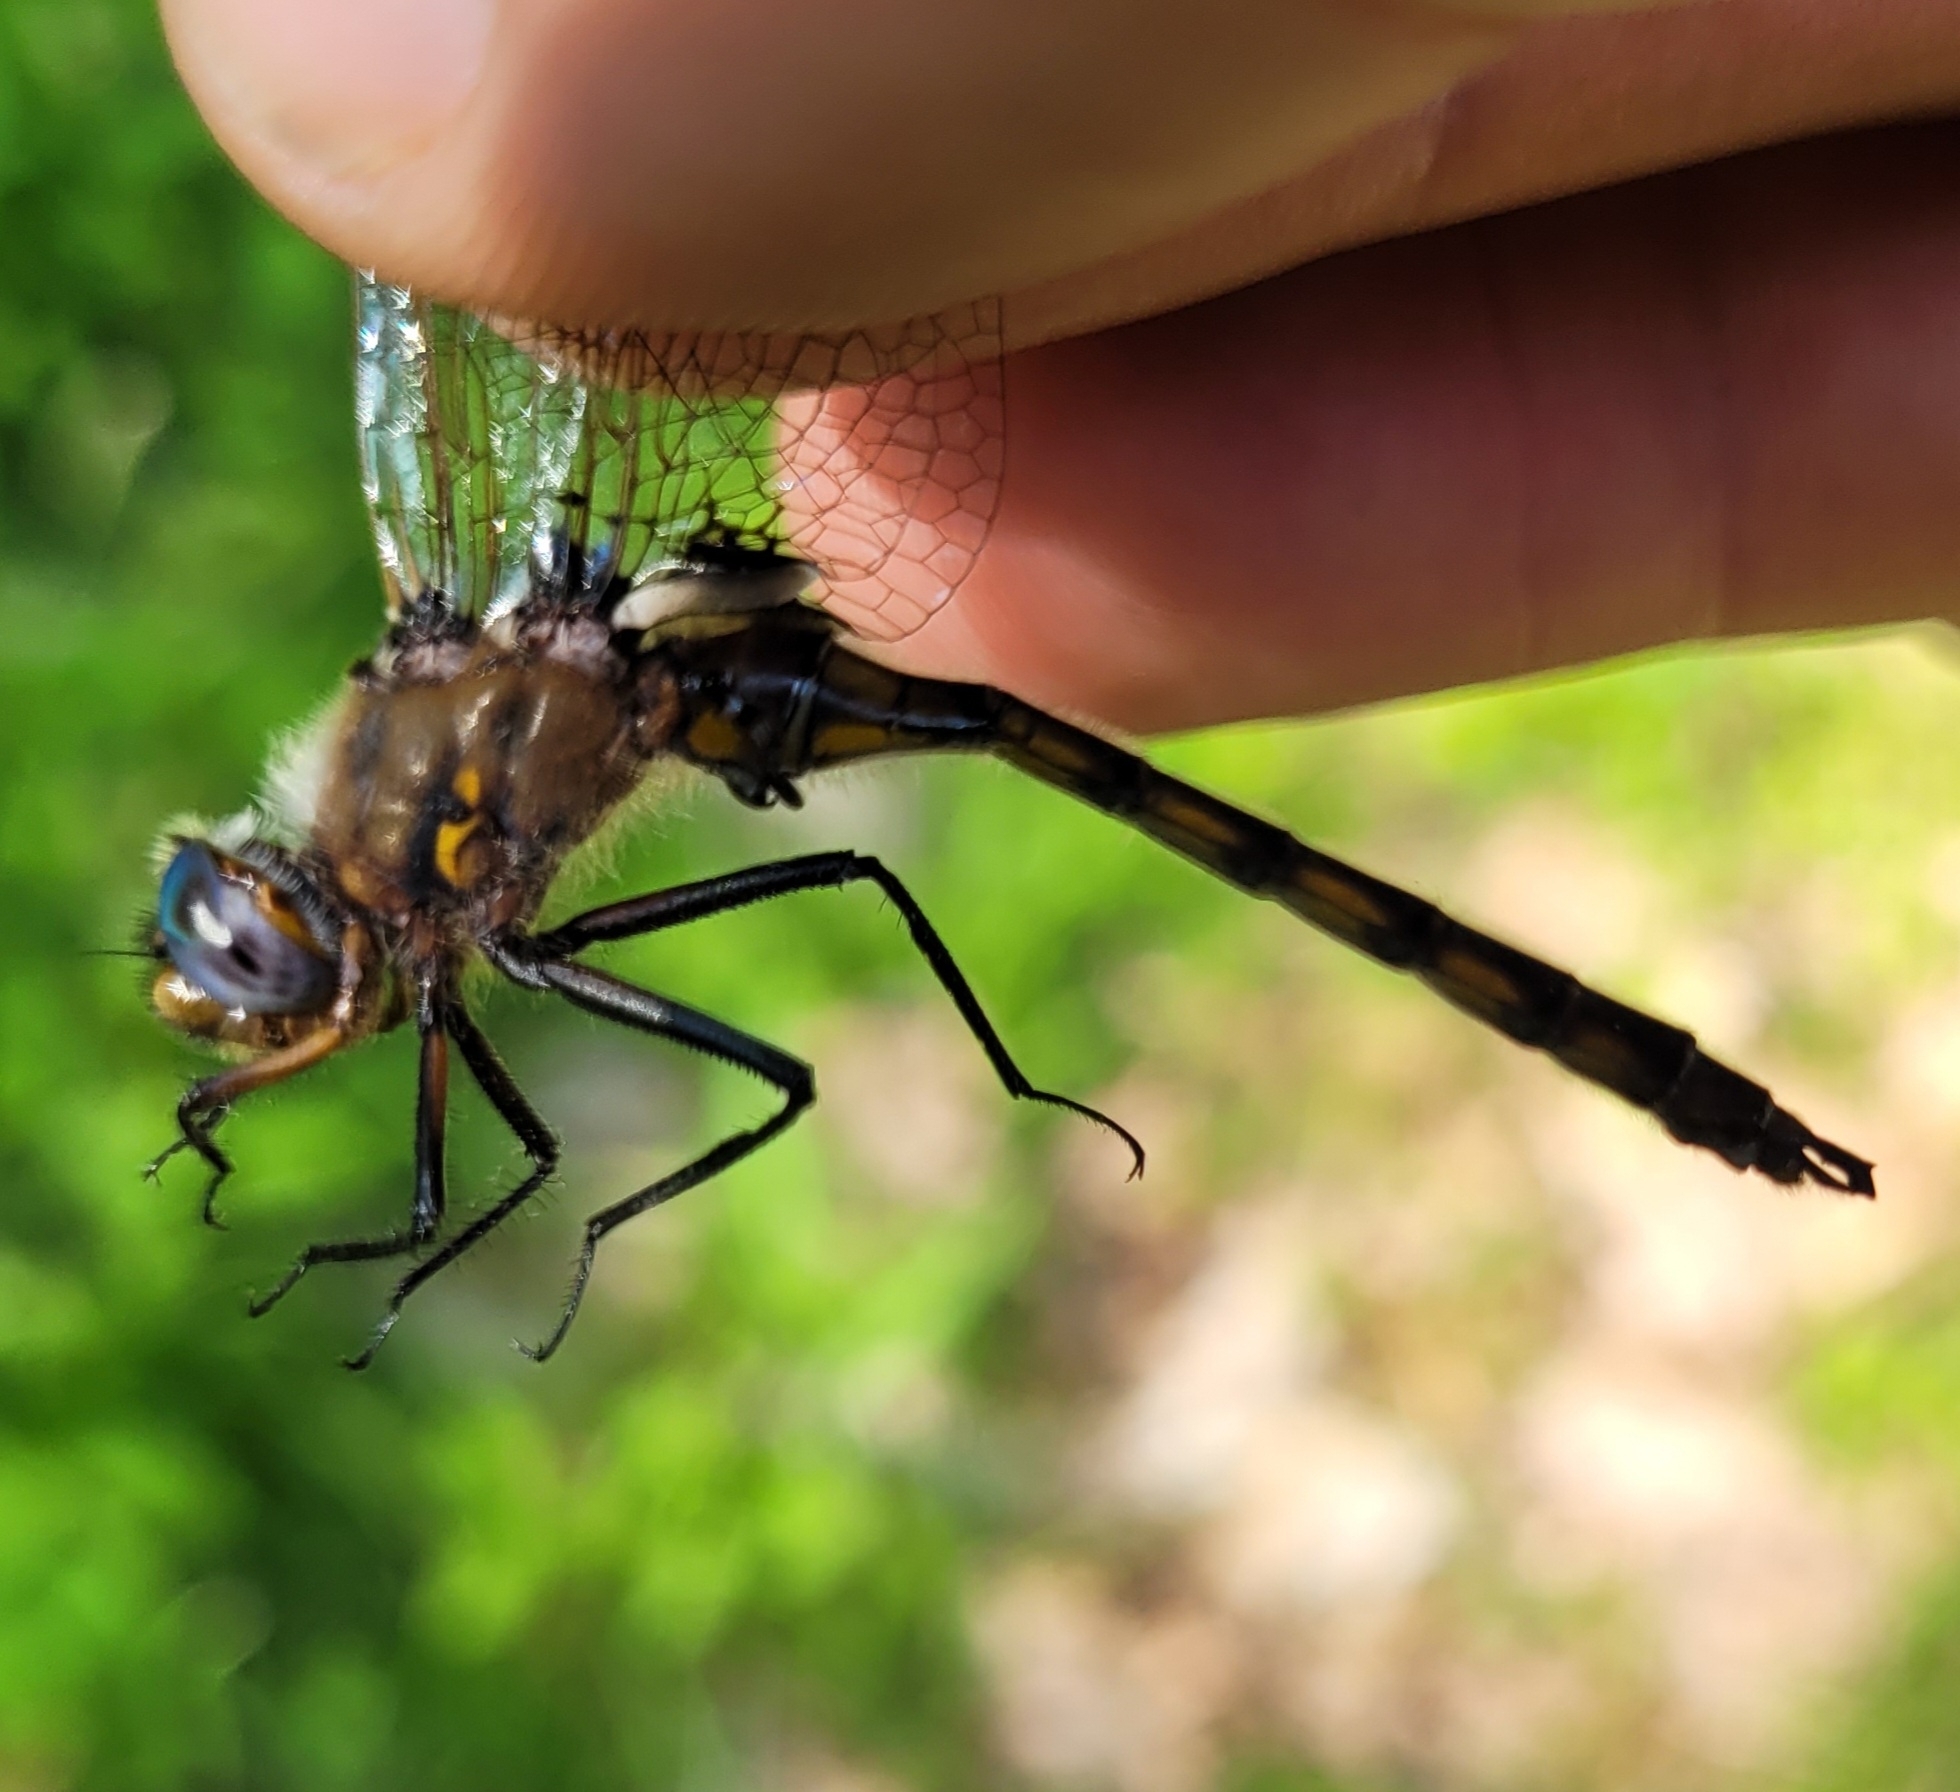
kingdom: Animalia
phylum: Arthropoda
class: Insecta
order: Odonata
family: Corduliidae
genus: Epitheca
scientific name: Epitheca canis
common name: Beaverpond baskettail
